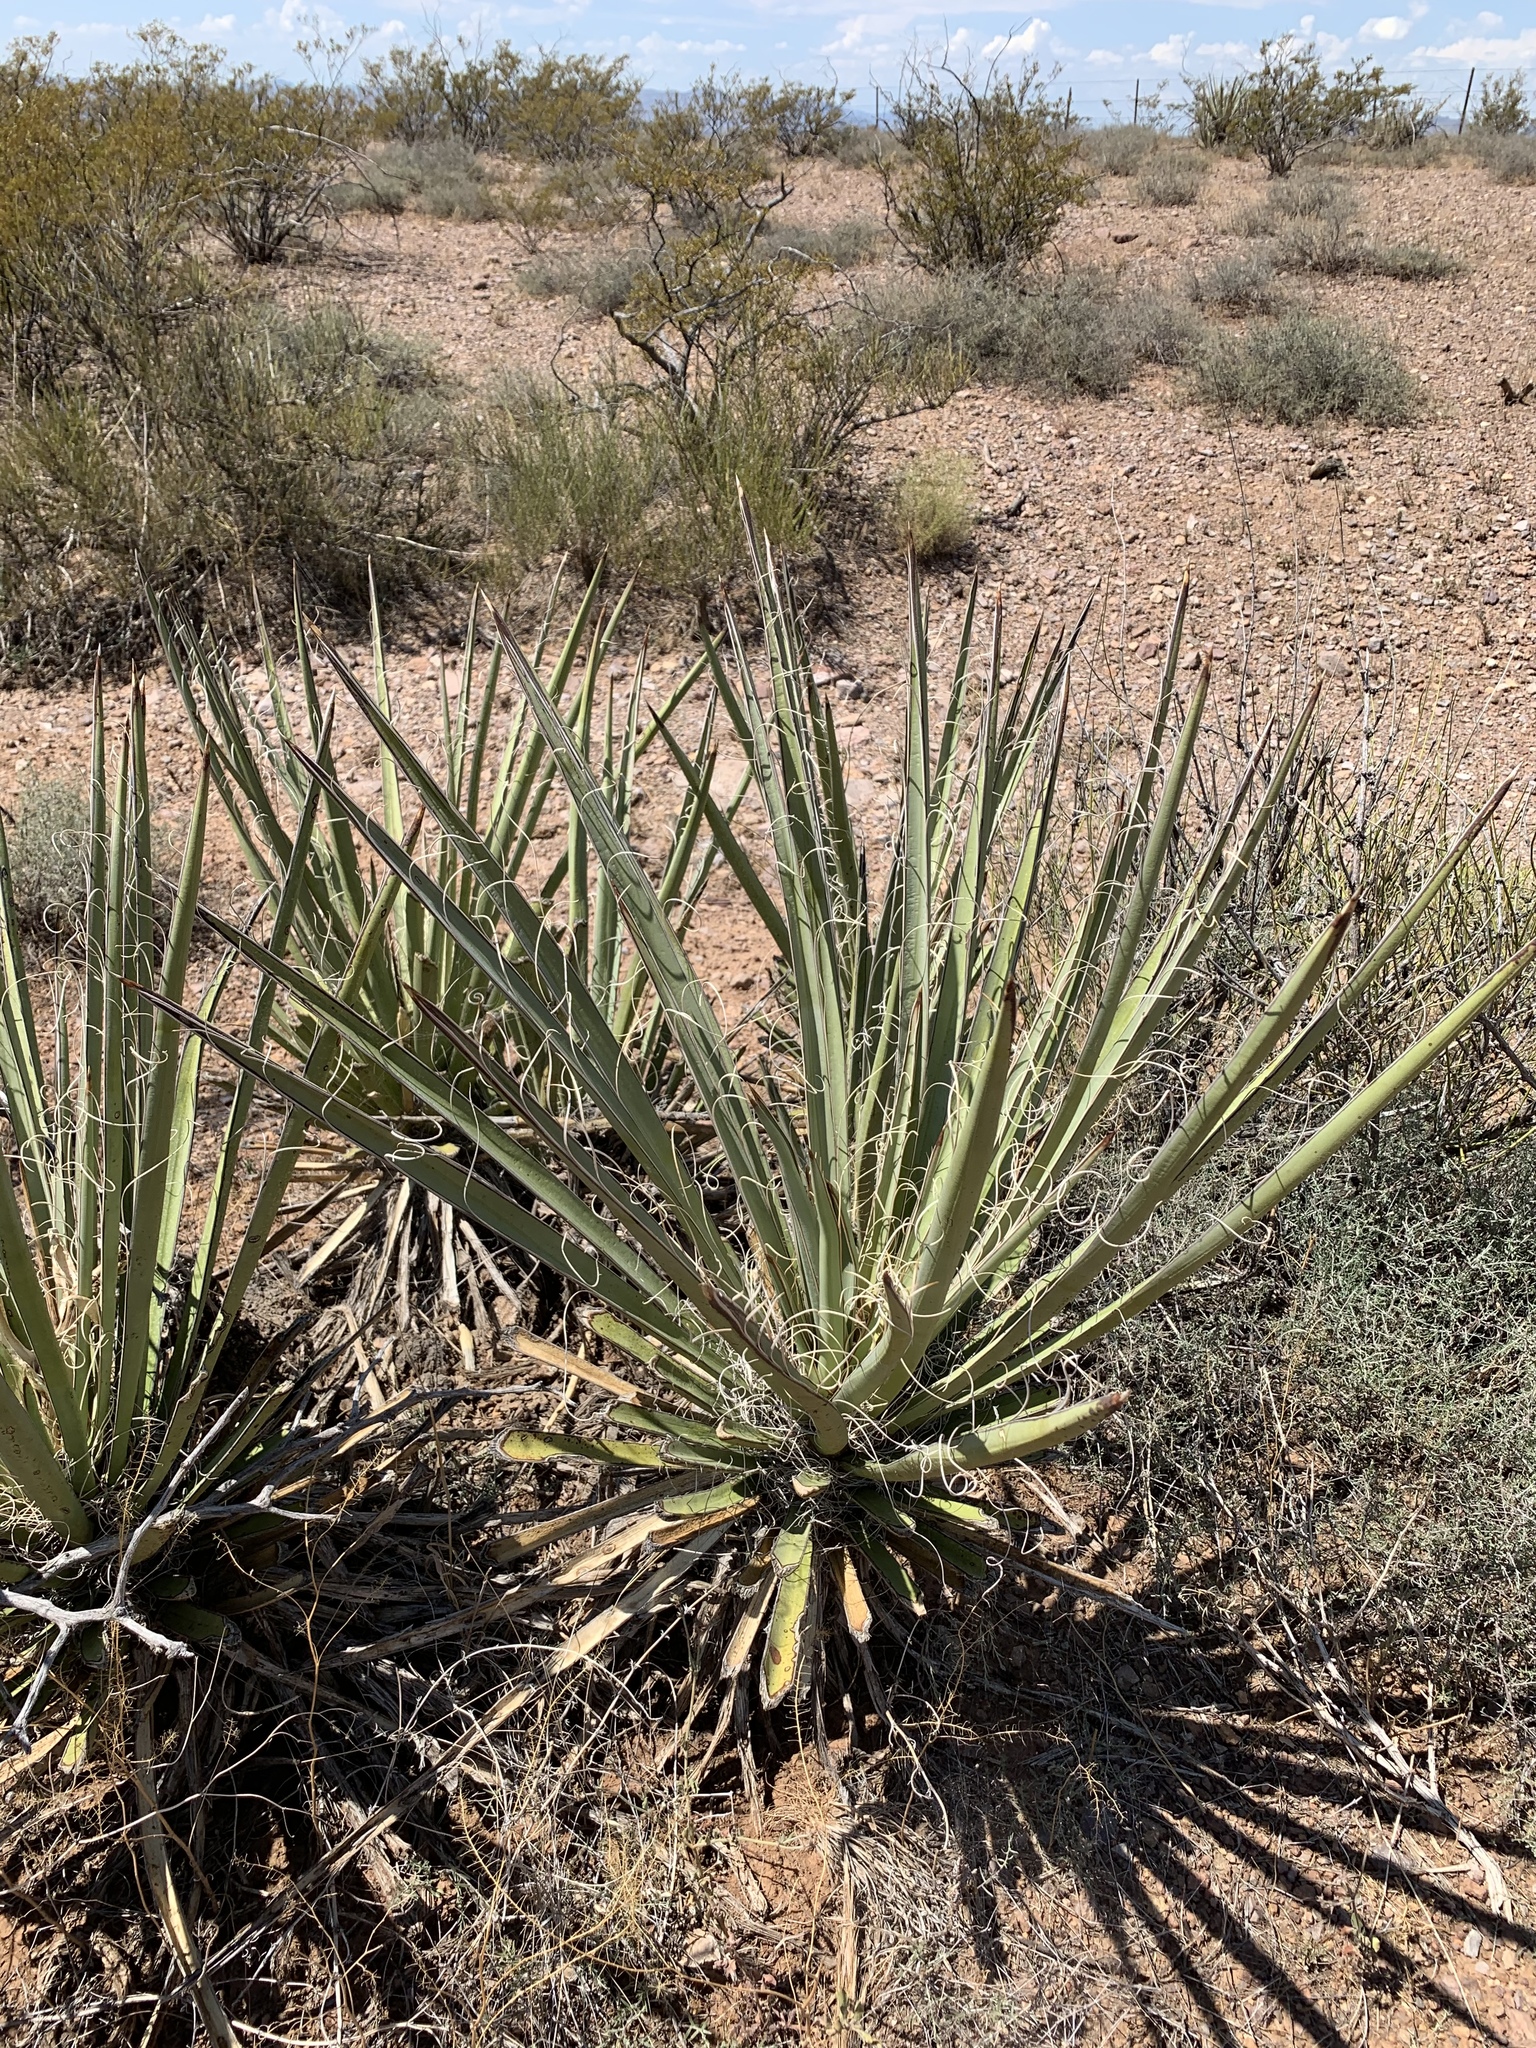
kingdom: Plantae
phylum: Tracheophyta
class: Liliopsida
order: Asparagales
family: Asparagaceae
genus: Yucca
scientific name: Yucca baccata
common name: Banana yucca
